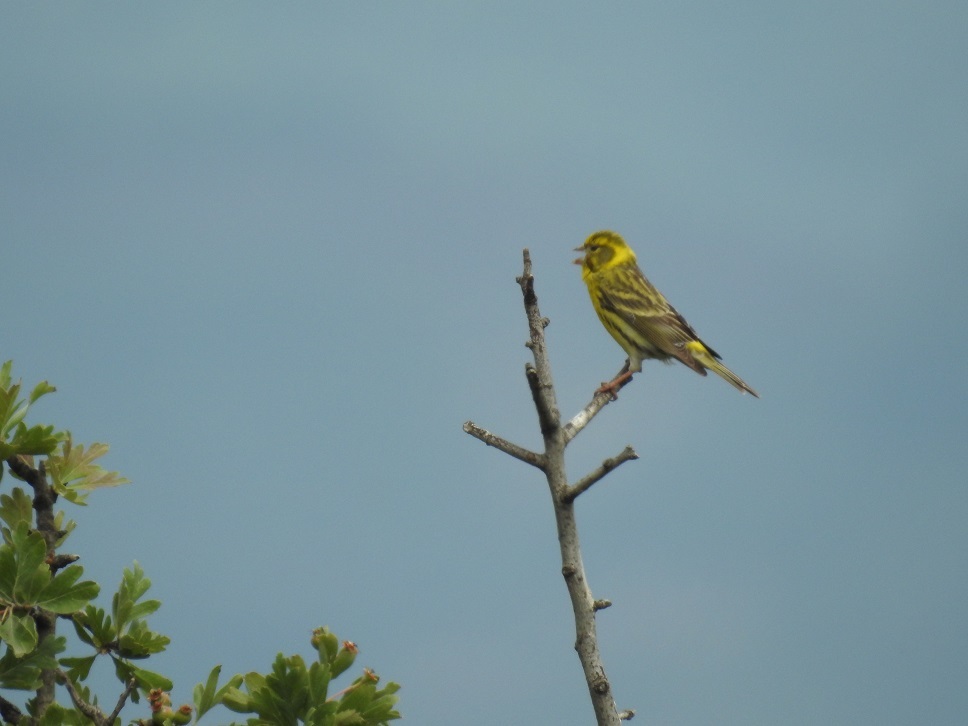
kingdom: Animalia
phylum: Chordata
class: Aves
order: Passeriformes
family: Fringillidae
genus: Serinus
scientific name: Serinus serinus
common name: European serin
